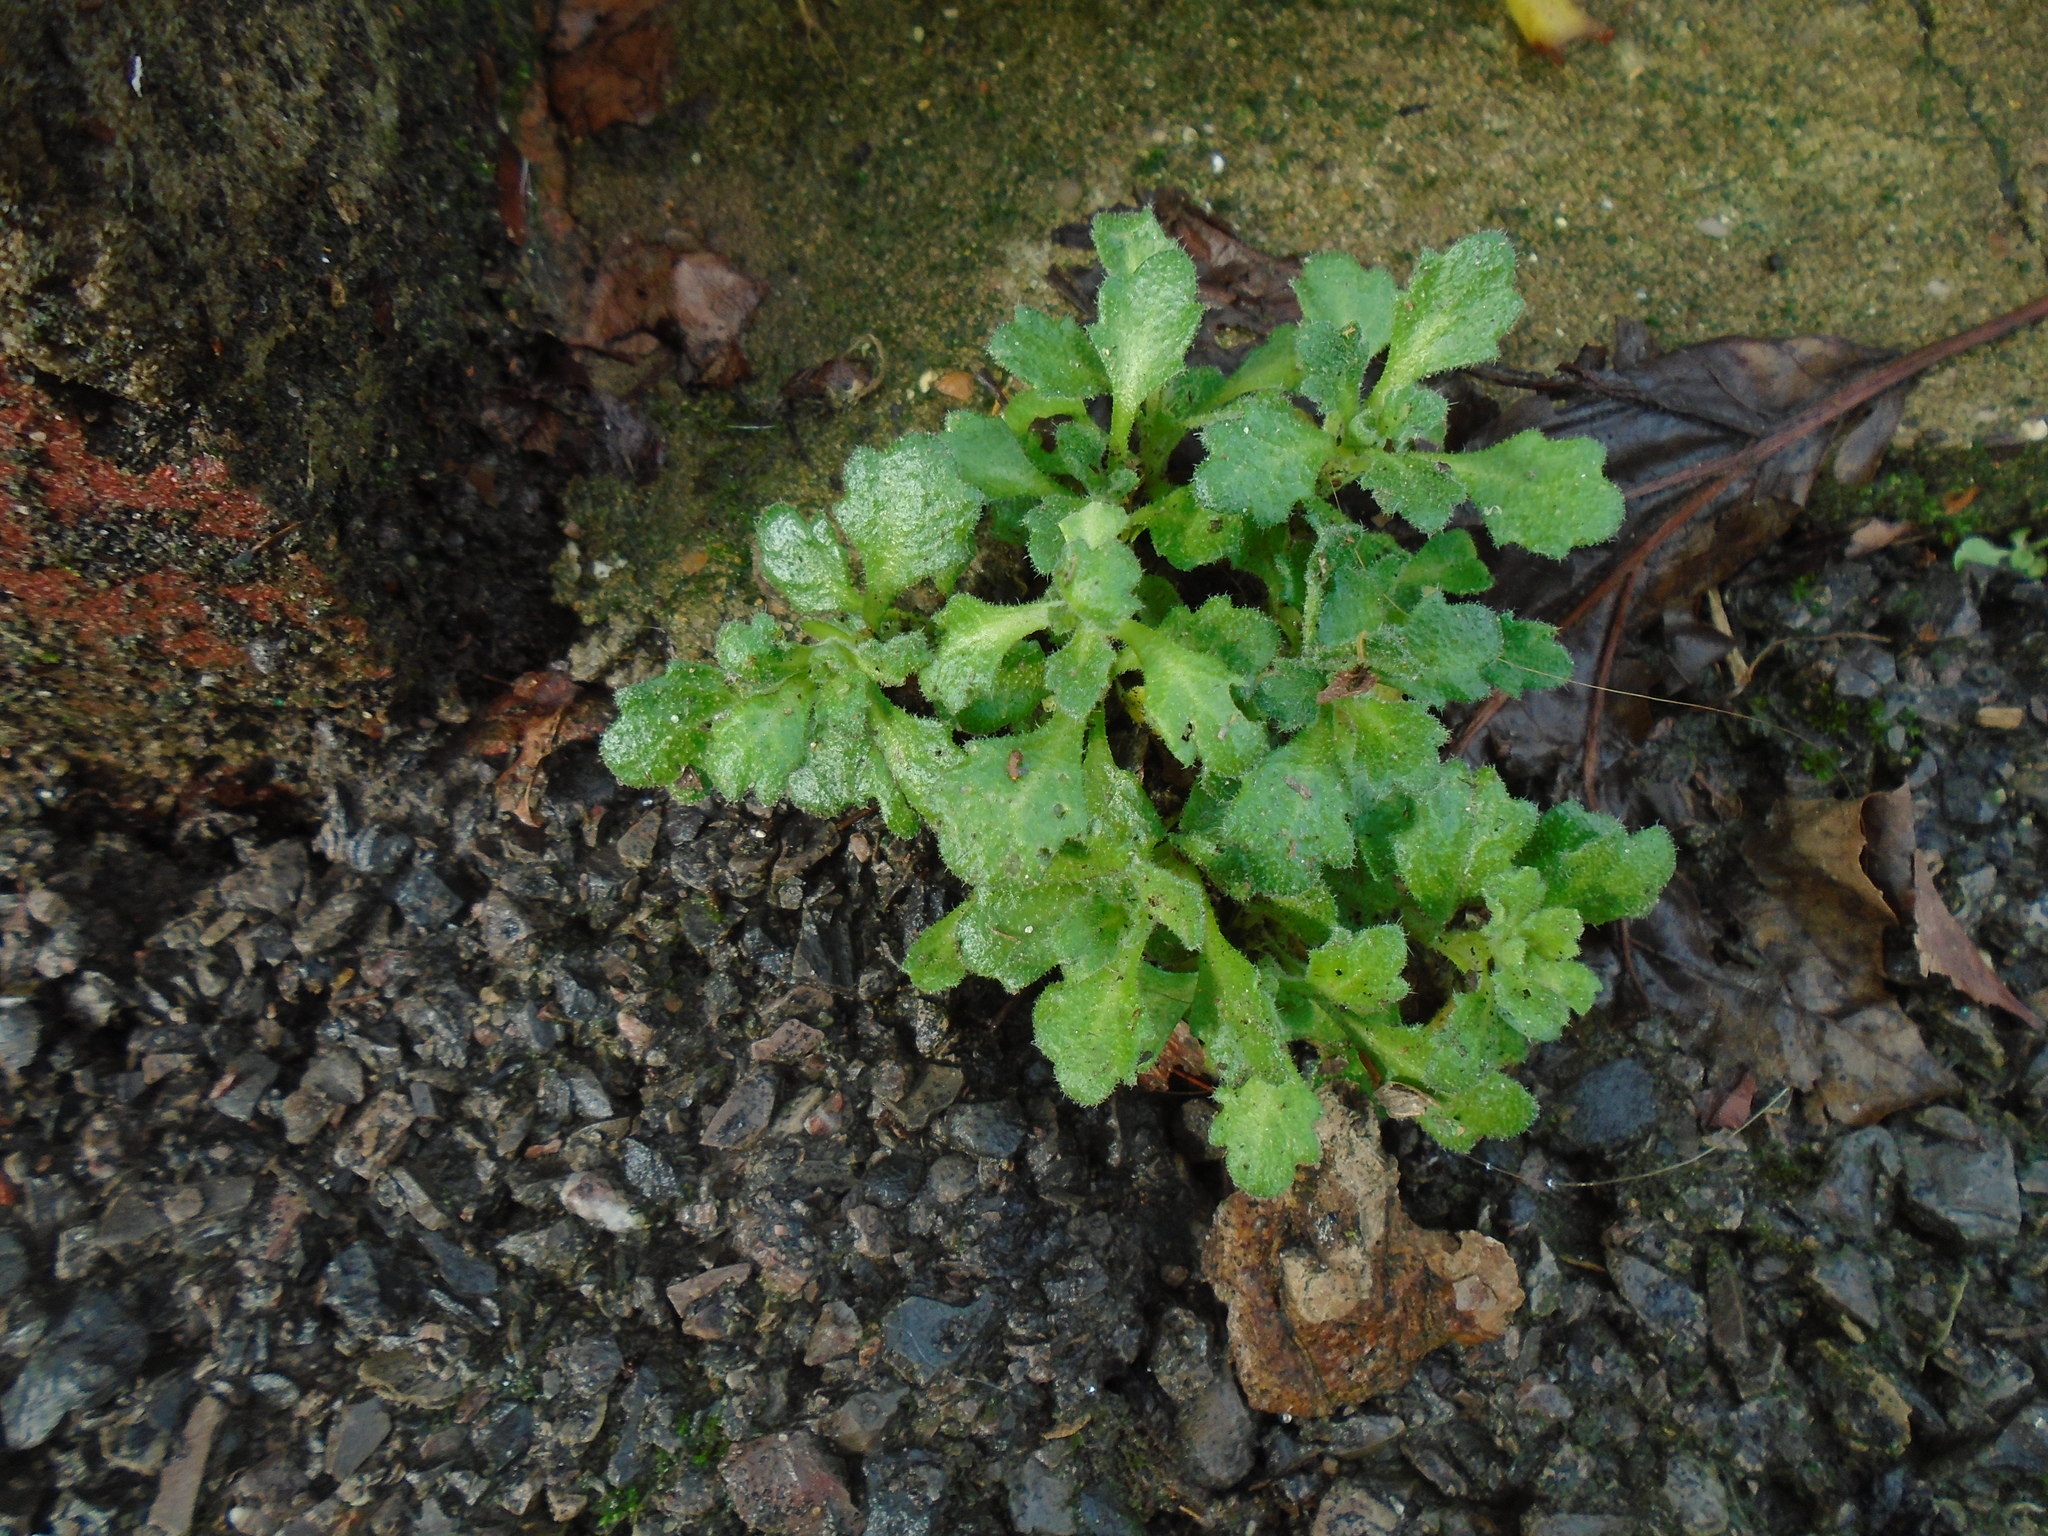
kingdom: Plantae
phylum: Tracheophyta
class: Magnoliopsida
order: Brassicales
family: Brassicaceae
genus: Aubrieta
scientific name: Aubrieta deltoidea
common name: Aubretia
